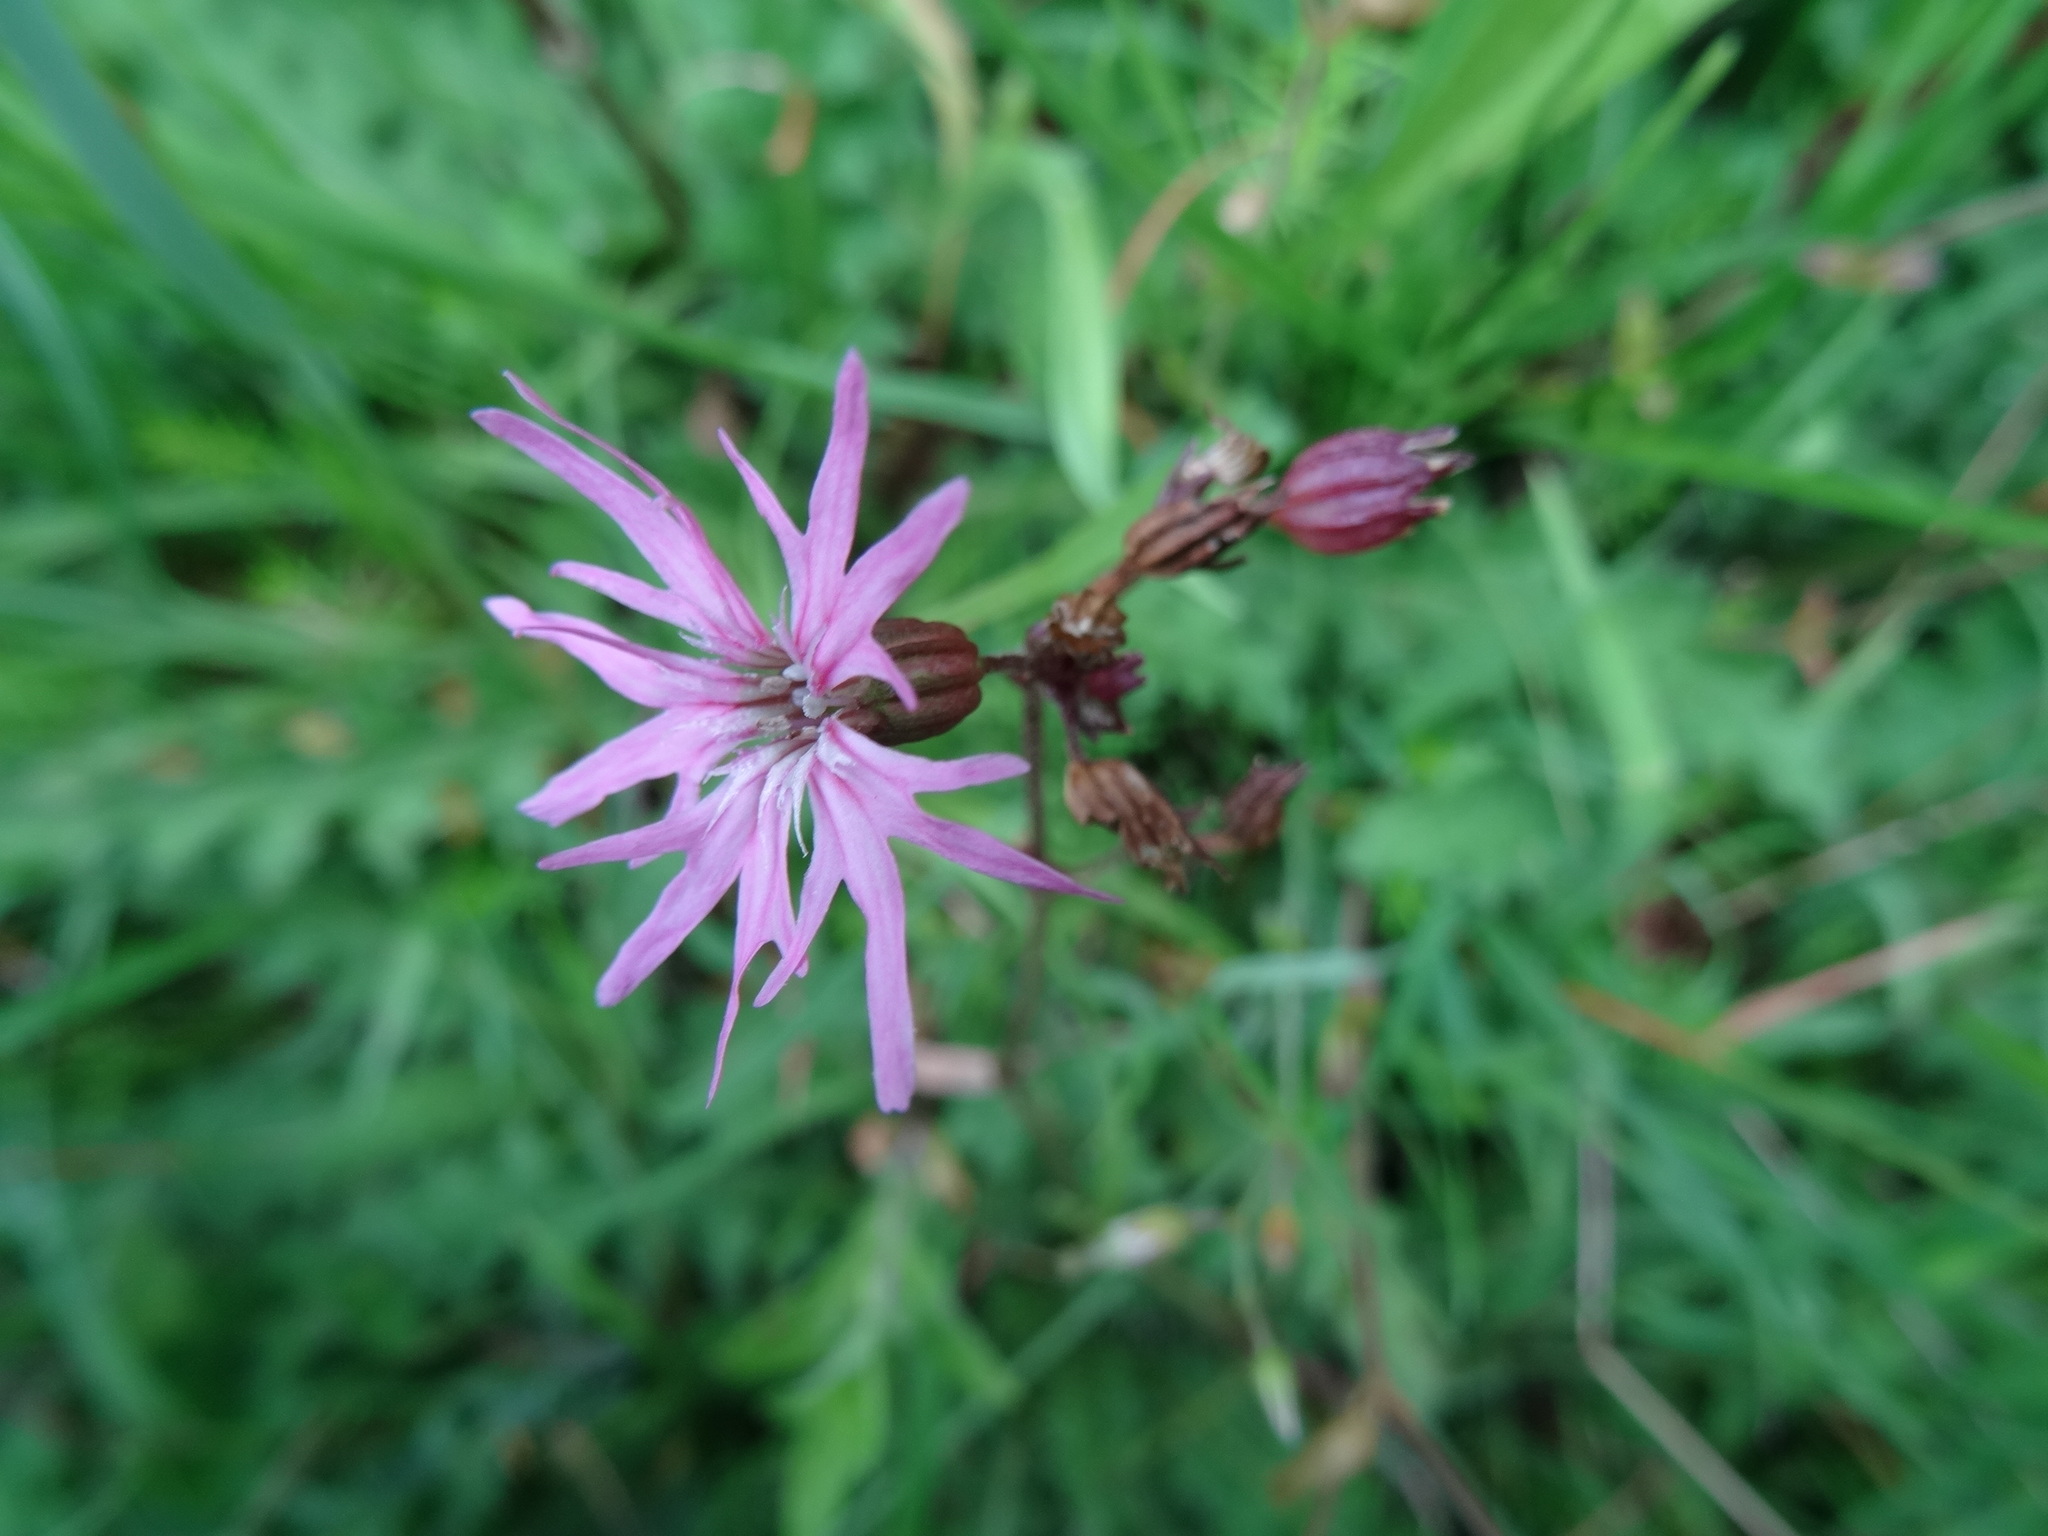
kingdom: Plantae
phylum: Tracheophyta
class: Magnoliopsida
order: Caryophyllales
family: Caryophyllaceae
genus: Silene
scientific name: Silene flos-cuculi
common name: Ragged-robin
